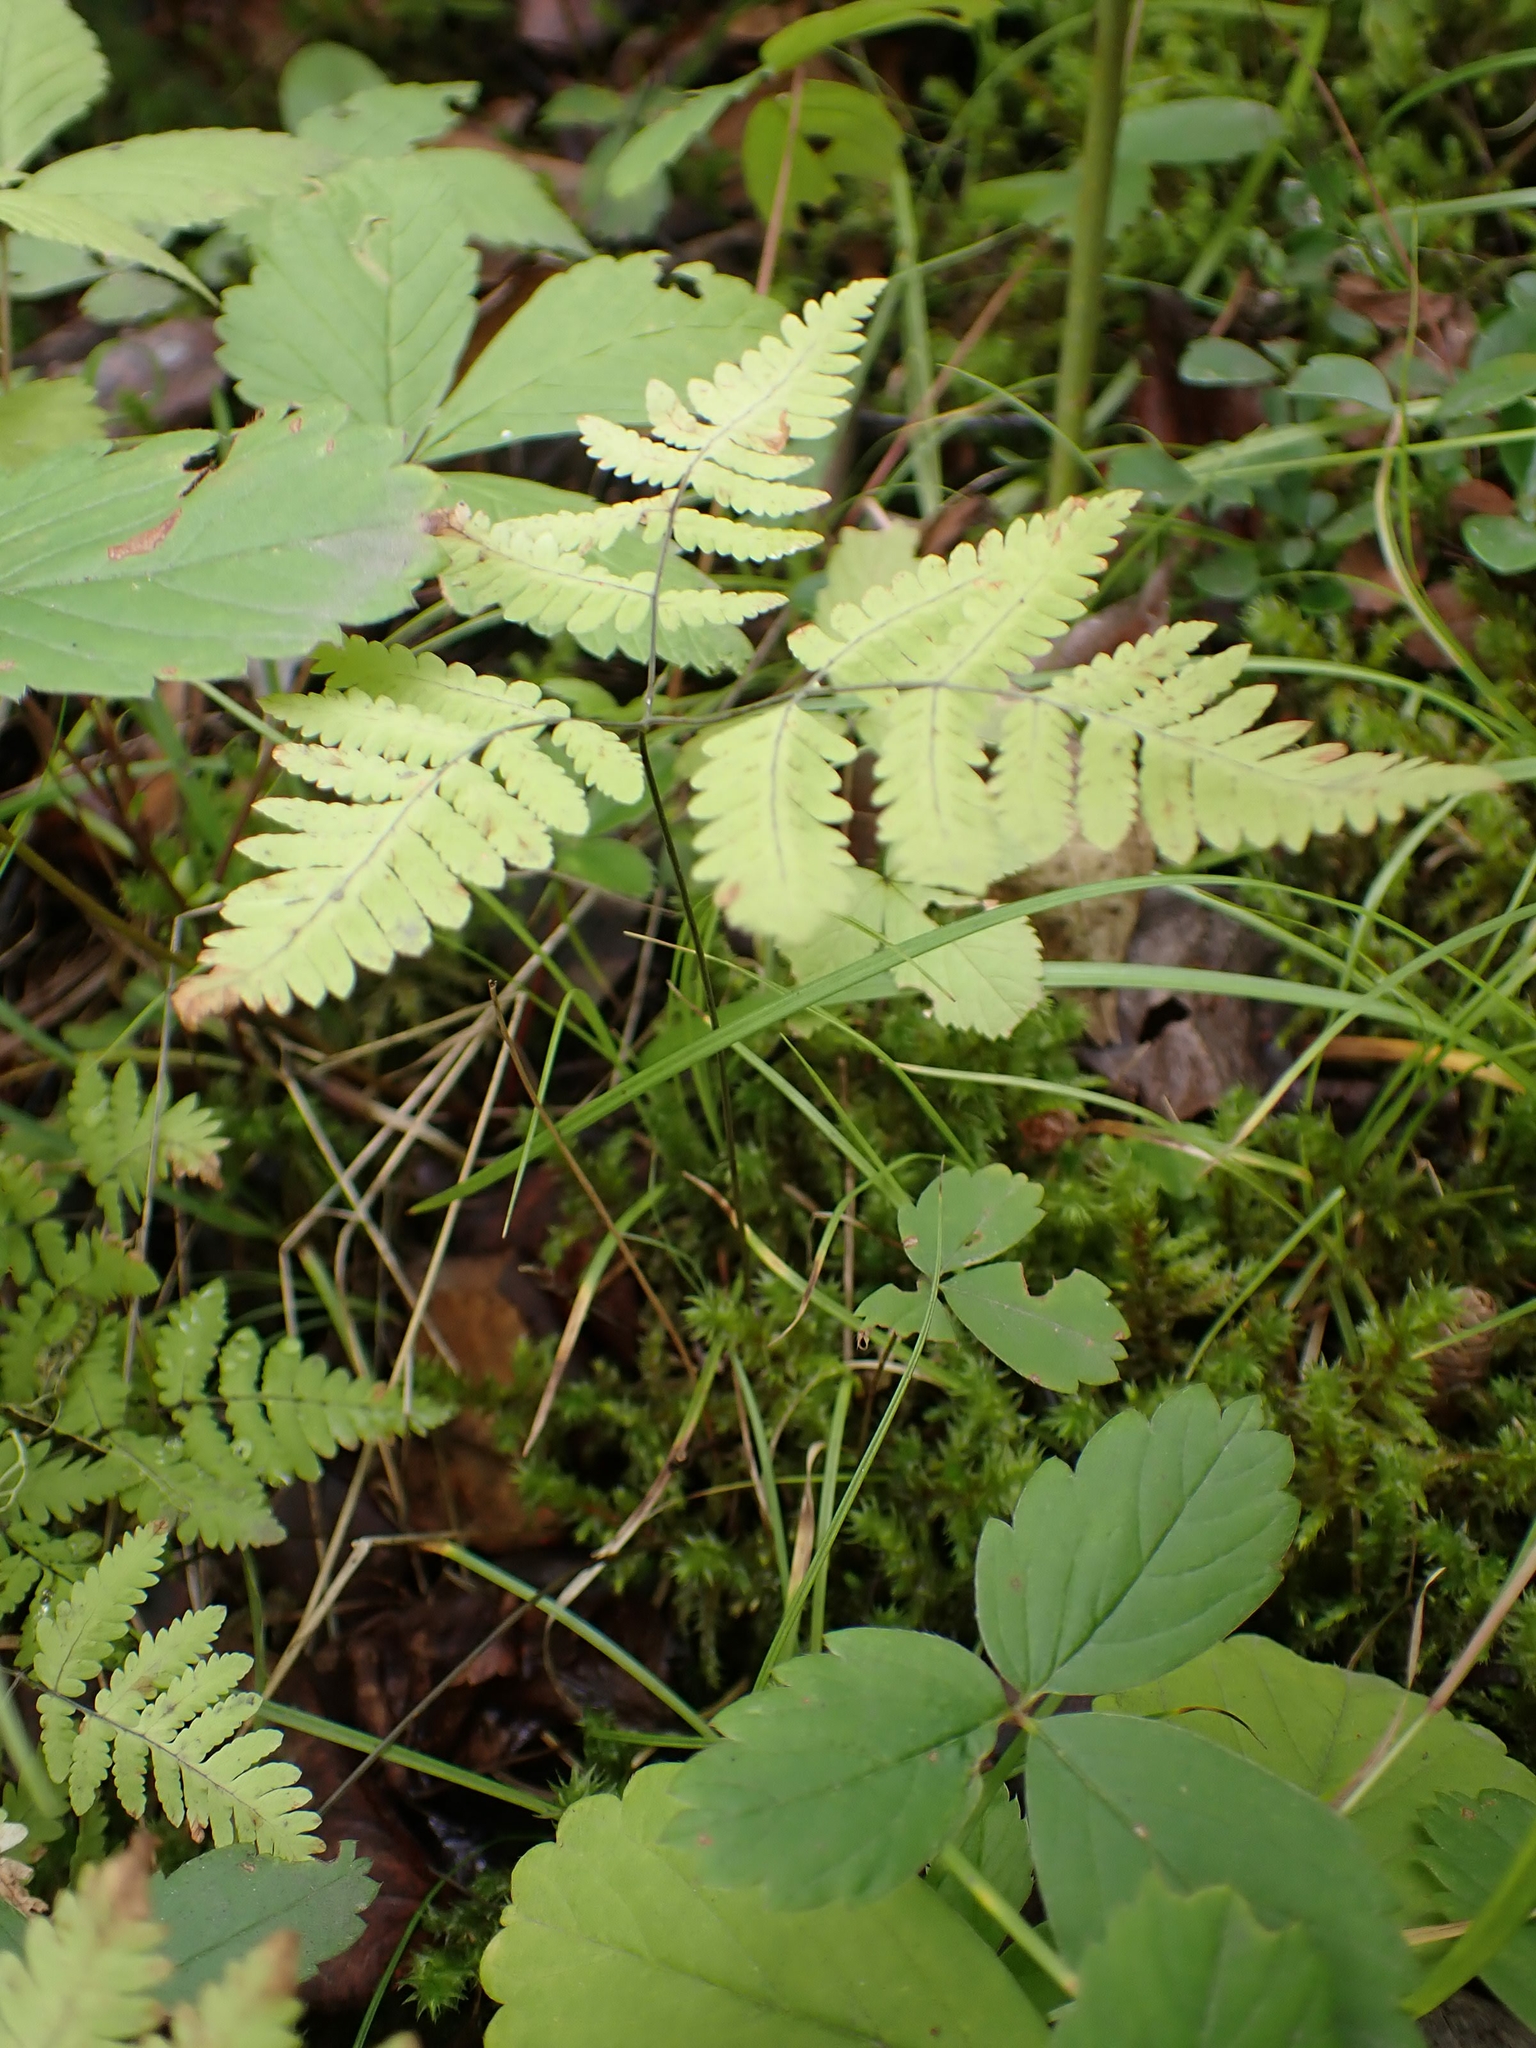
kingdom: Plantae
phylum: Tracheophyta
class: Polypodiopsida
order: Polypodiales
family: Cystopteridaceae
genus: Gymnocarpium
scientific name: Gymnocarpium dryopteris
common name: Oak fern
